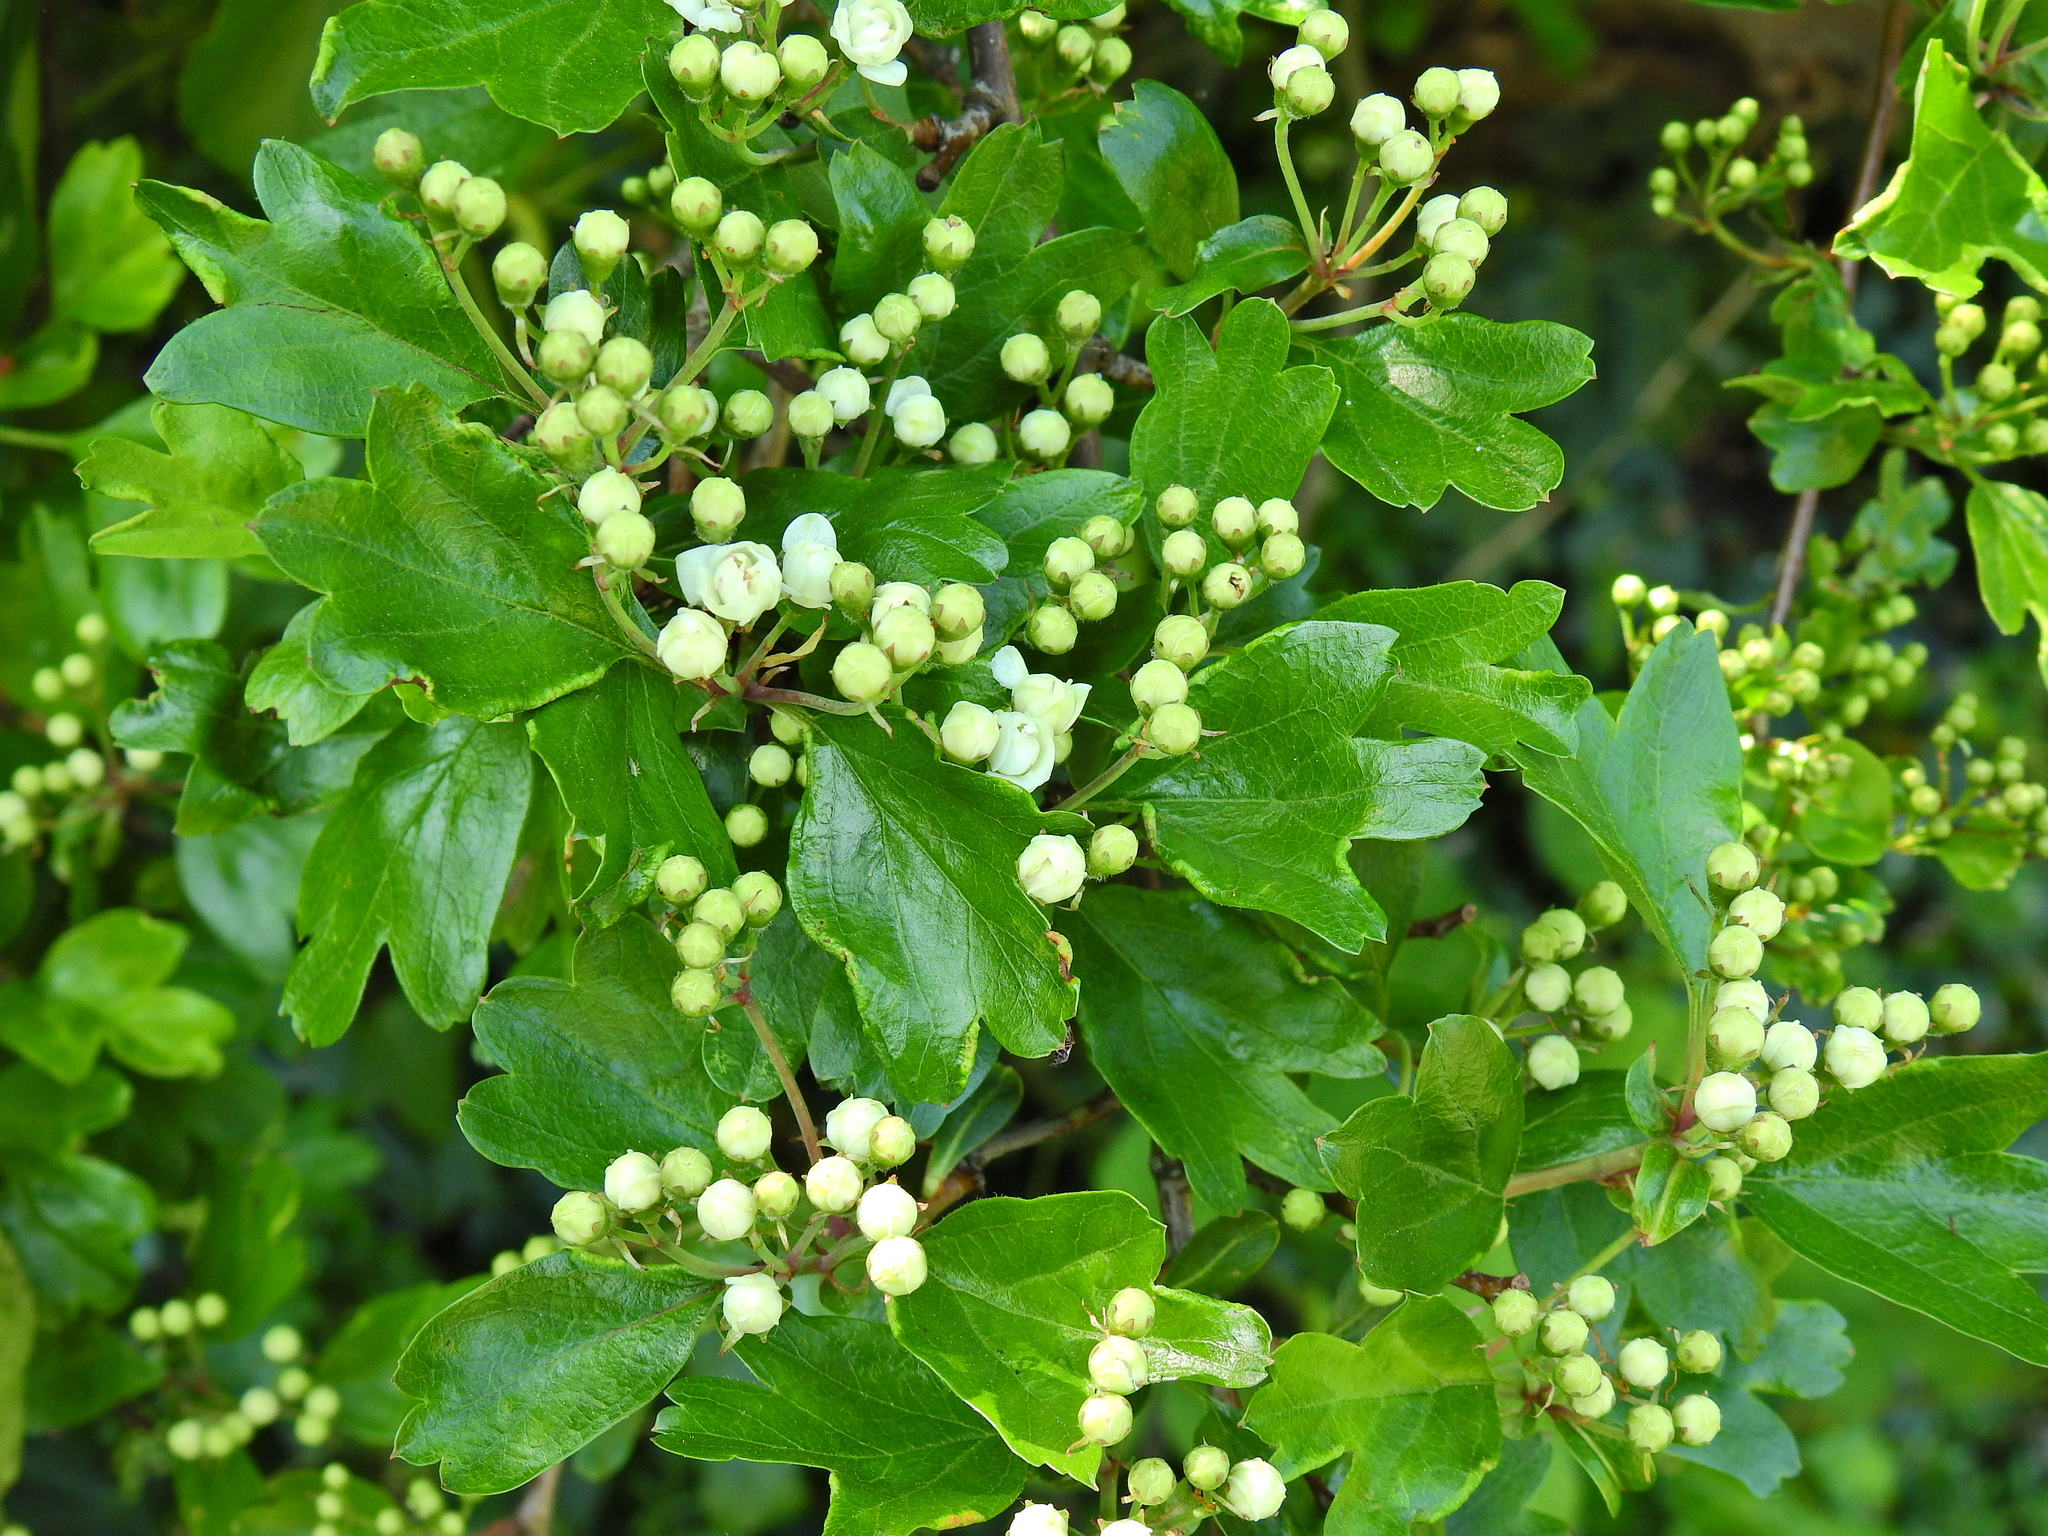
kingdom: Animalia
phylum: Arthropoda
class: Arachnida
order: Trombidiformes
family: Eriophyidae
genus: Phyllocoptes
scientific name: Phyllocoptes goniothorax
